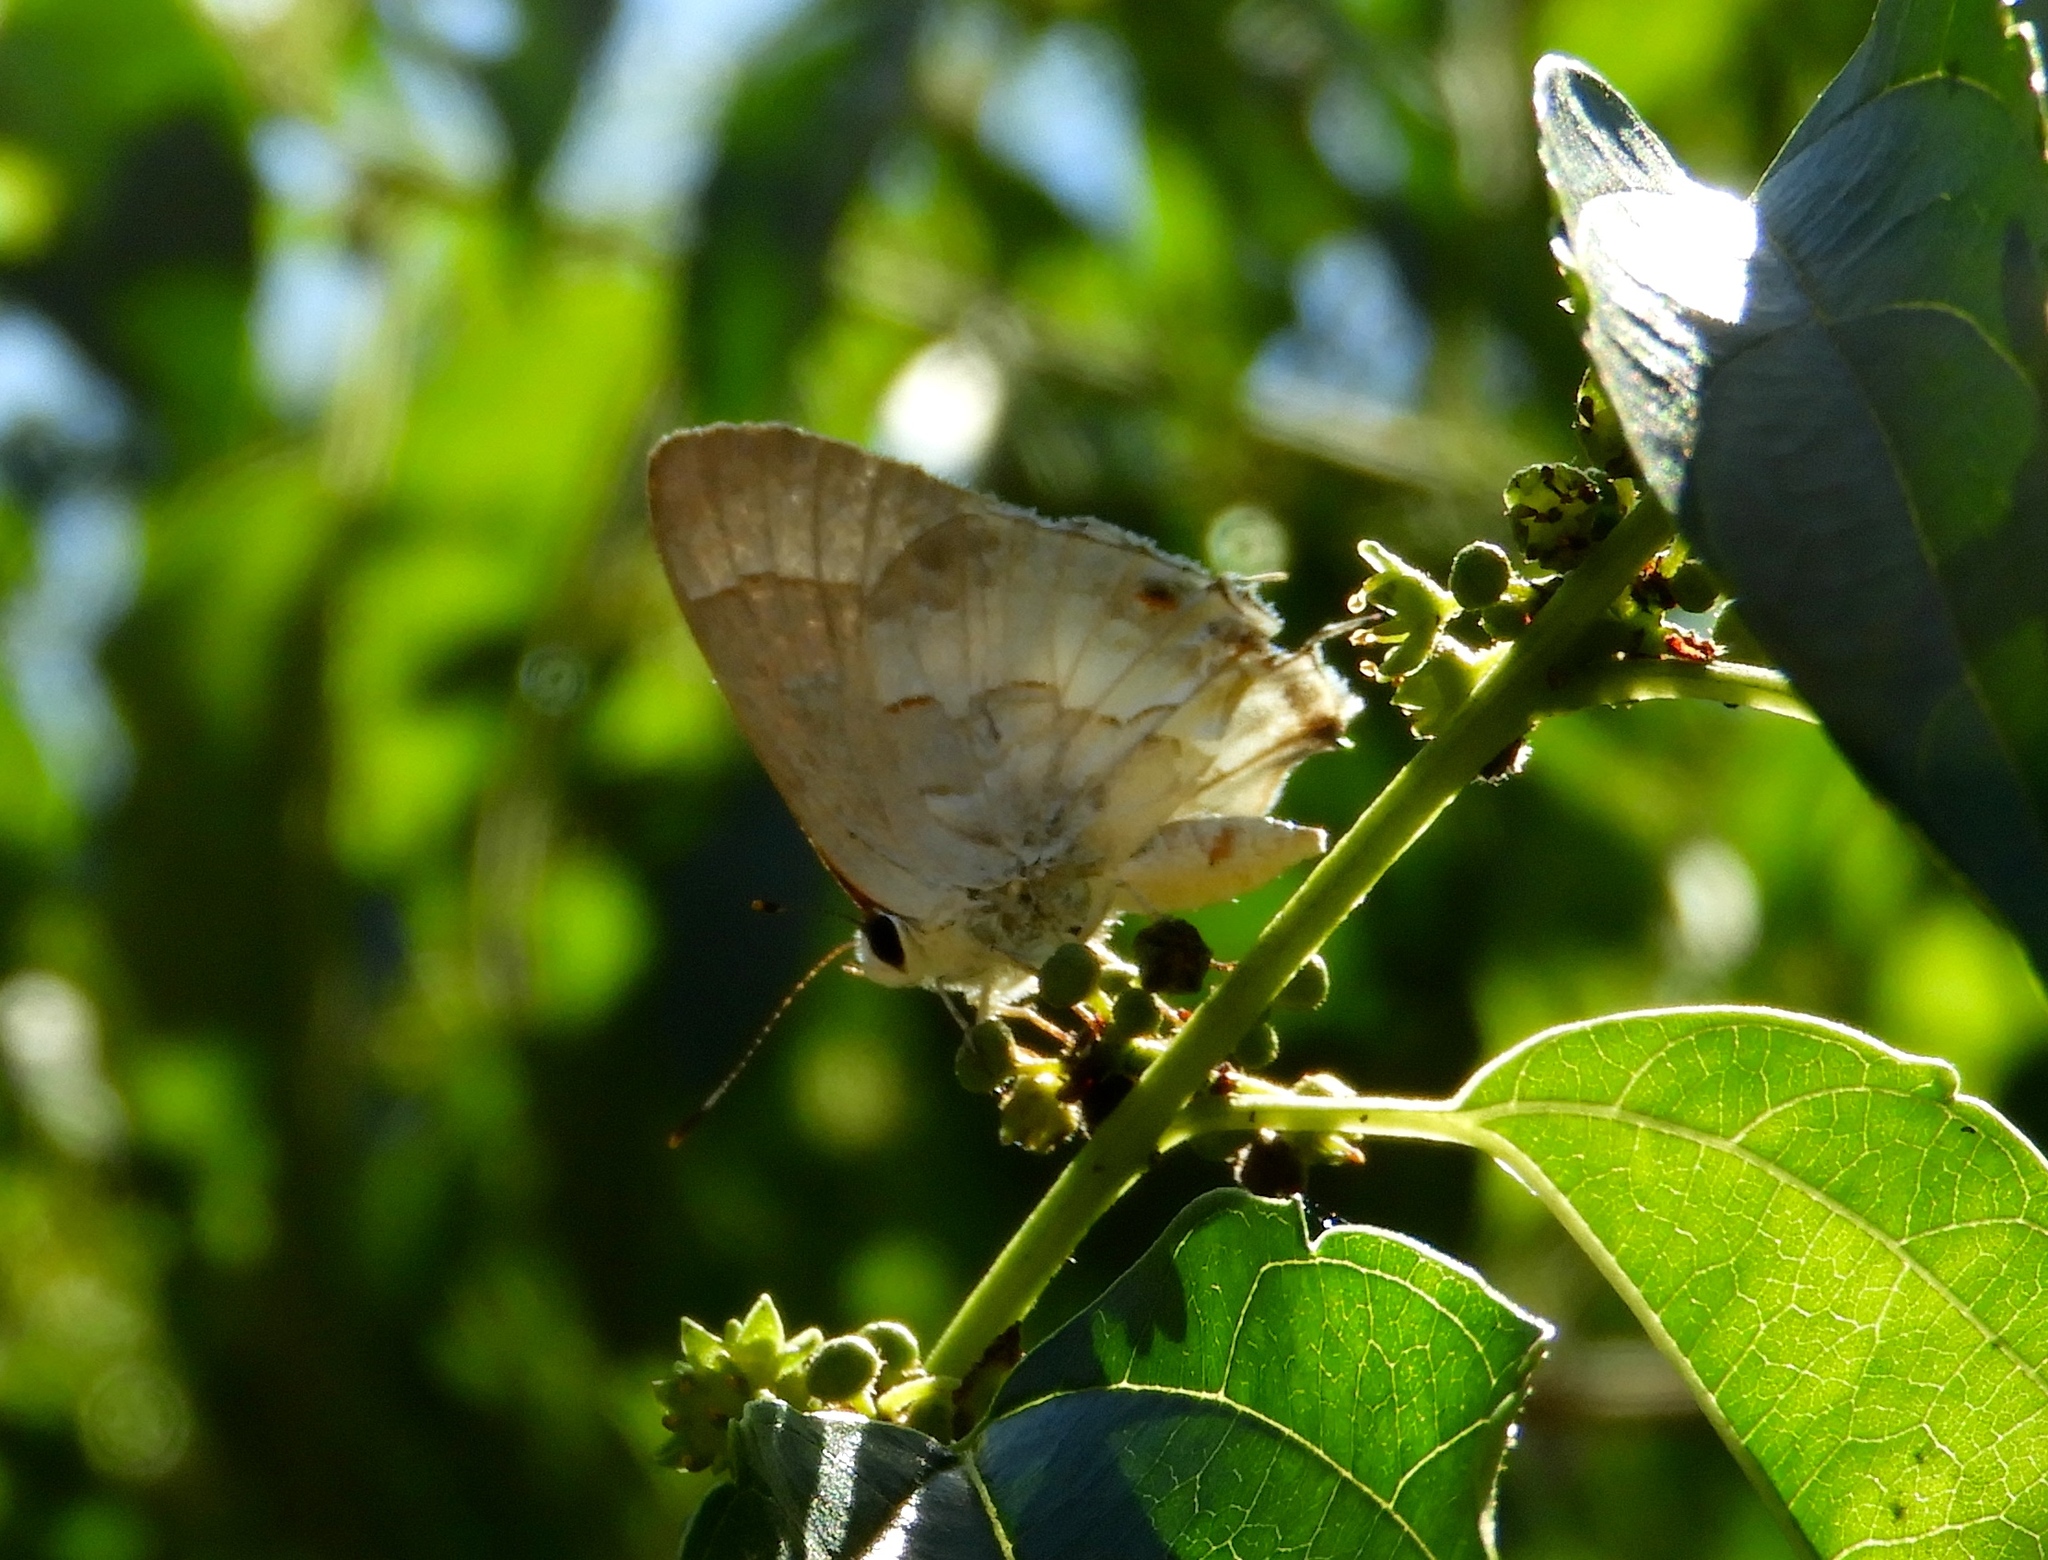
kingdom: Animalia
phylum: Arthropoda
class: Insecta
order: Lepidoptera
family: Lycaenidae
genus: Strymon
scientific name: Strymon albata
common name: White scrub-hairstreak
